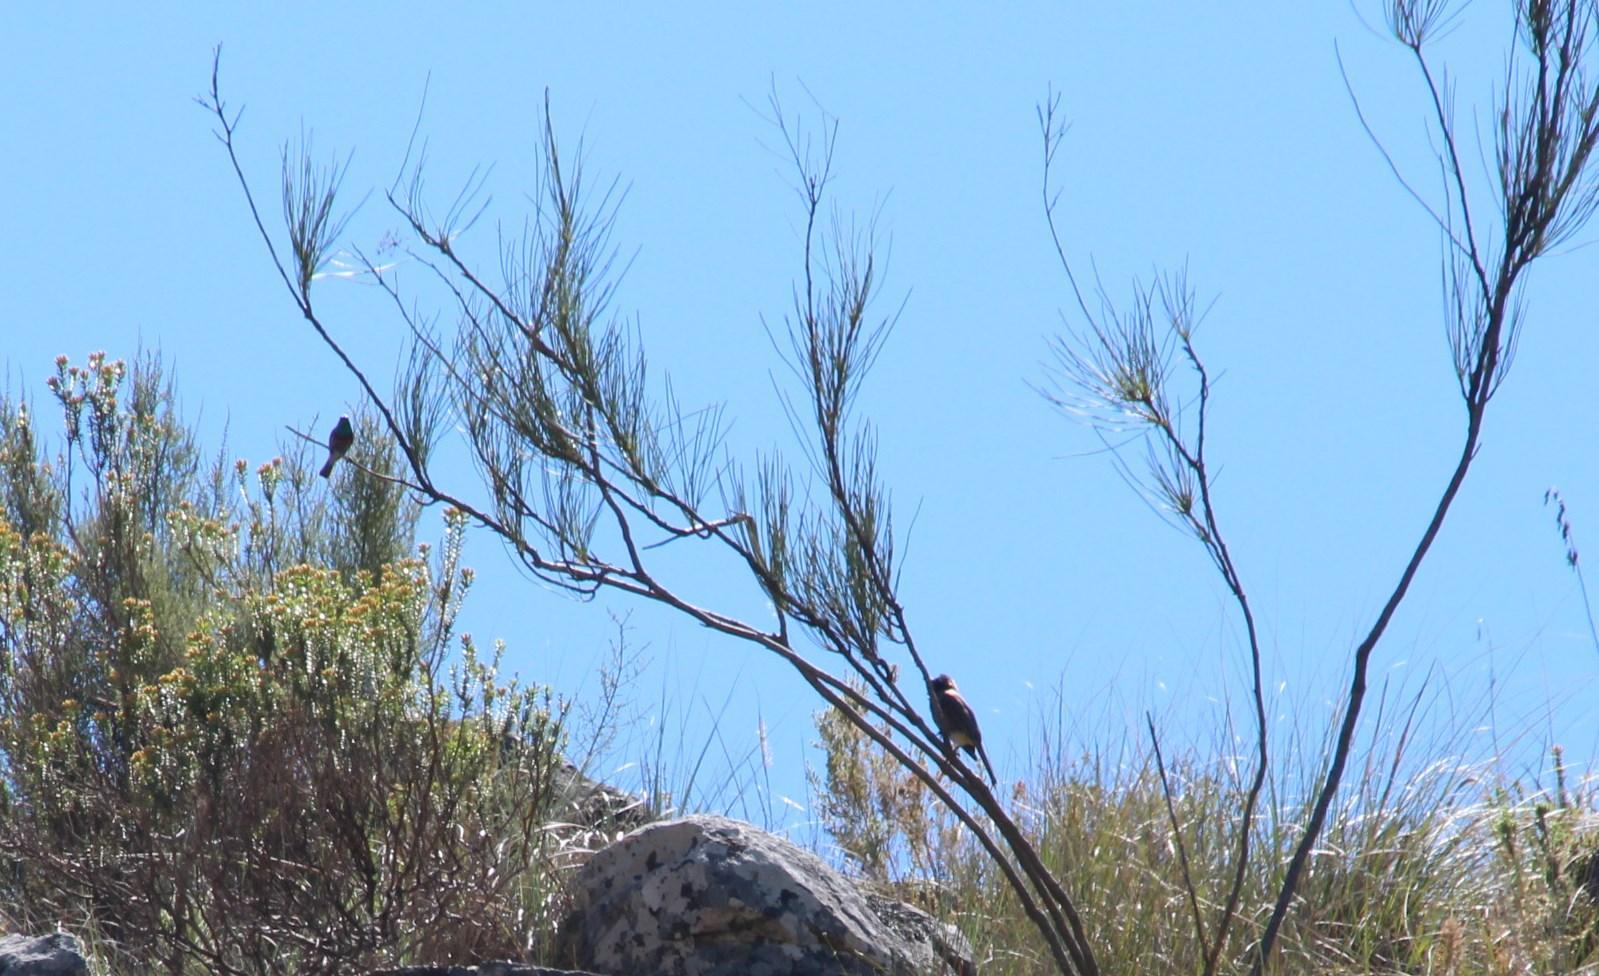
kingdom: Animalia
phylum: Chordata
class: Aves
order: Passeriformes
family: Pycnonotidae
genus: Pycnonotus
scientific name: Pycnonotus capensis
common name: Cape bulbul
